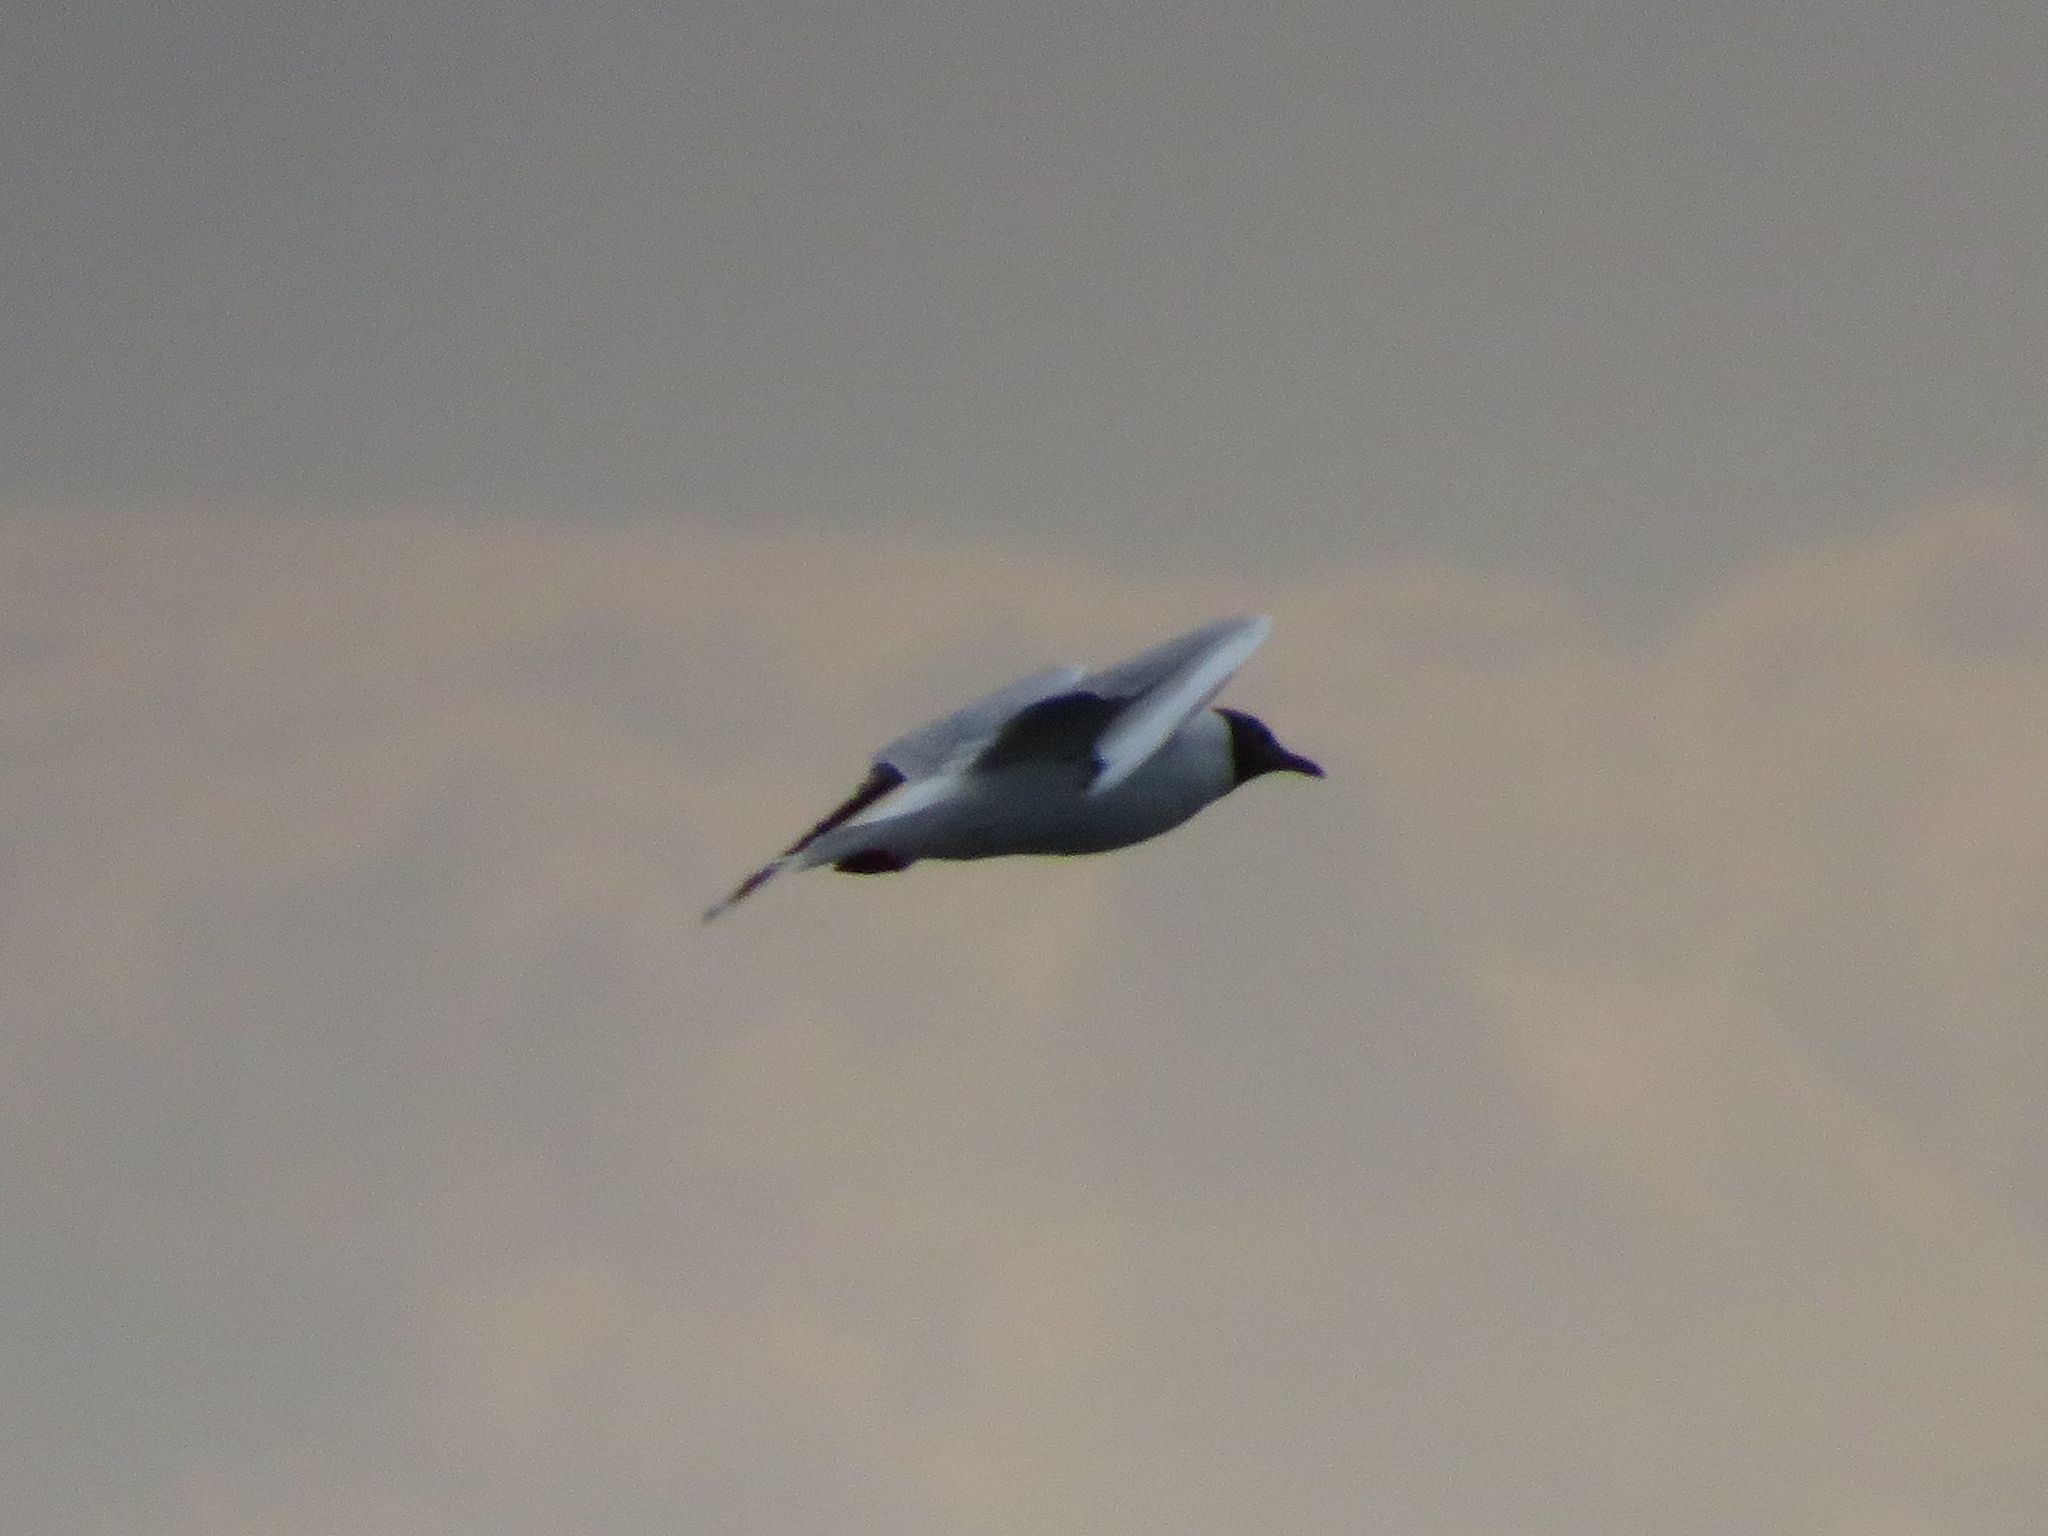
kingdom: Animalia
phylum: Chordata
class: Aves
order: Charadriiformes
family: Laridae
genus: Chroicocephalus
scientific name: Chroicocephalus maculipennis
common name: Brown-hooded gull
